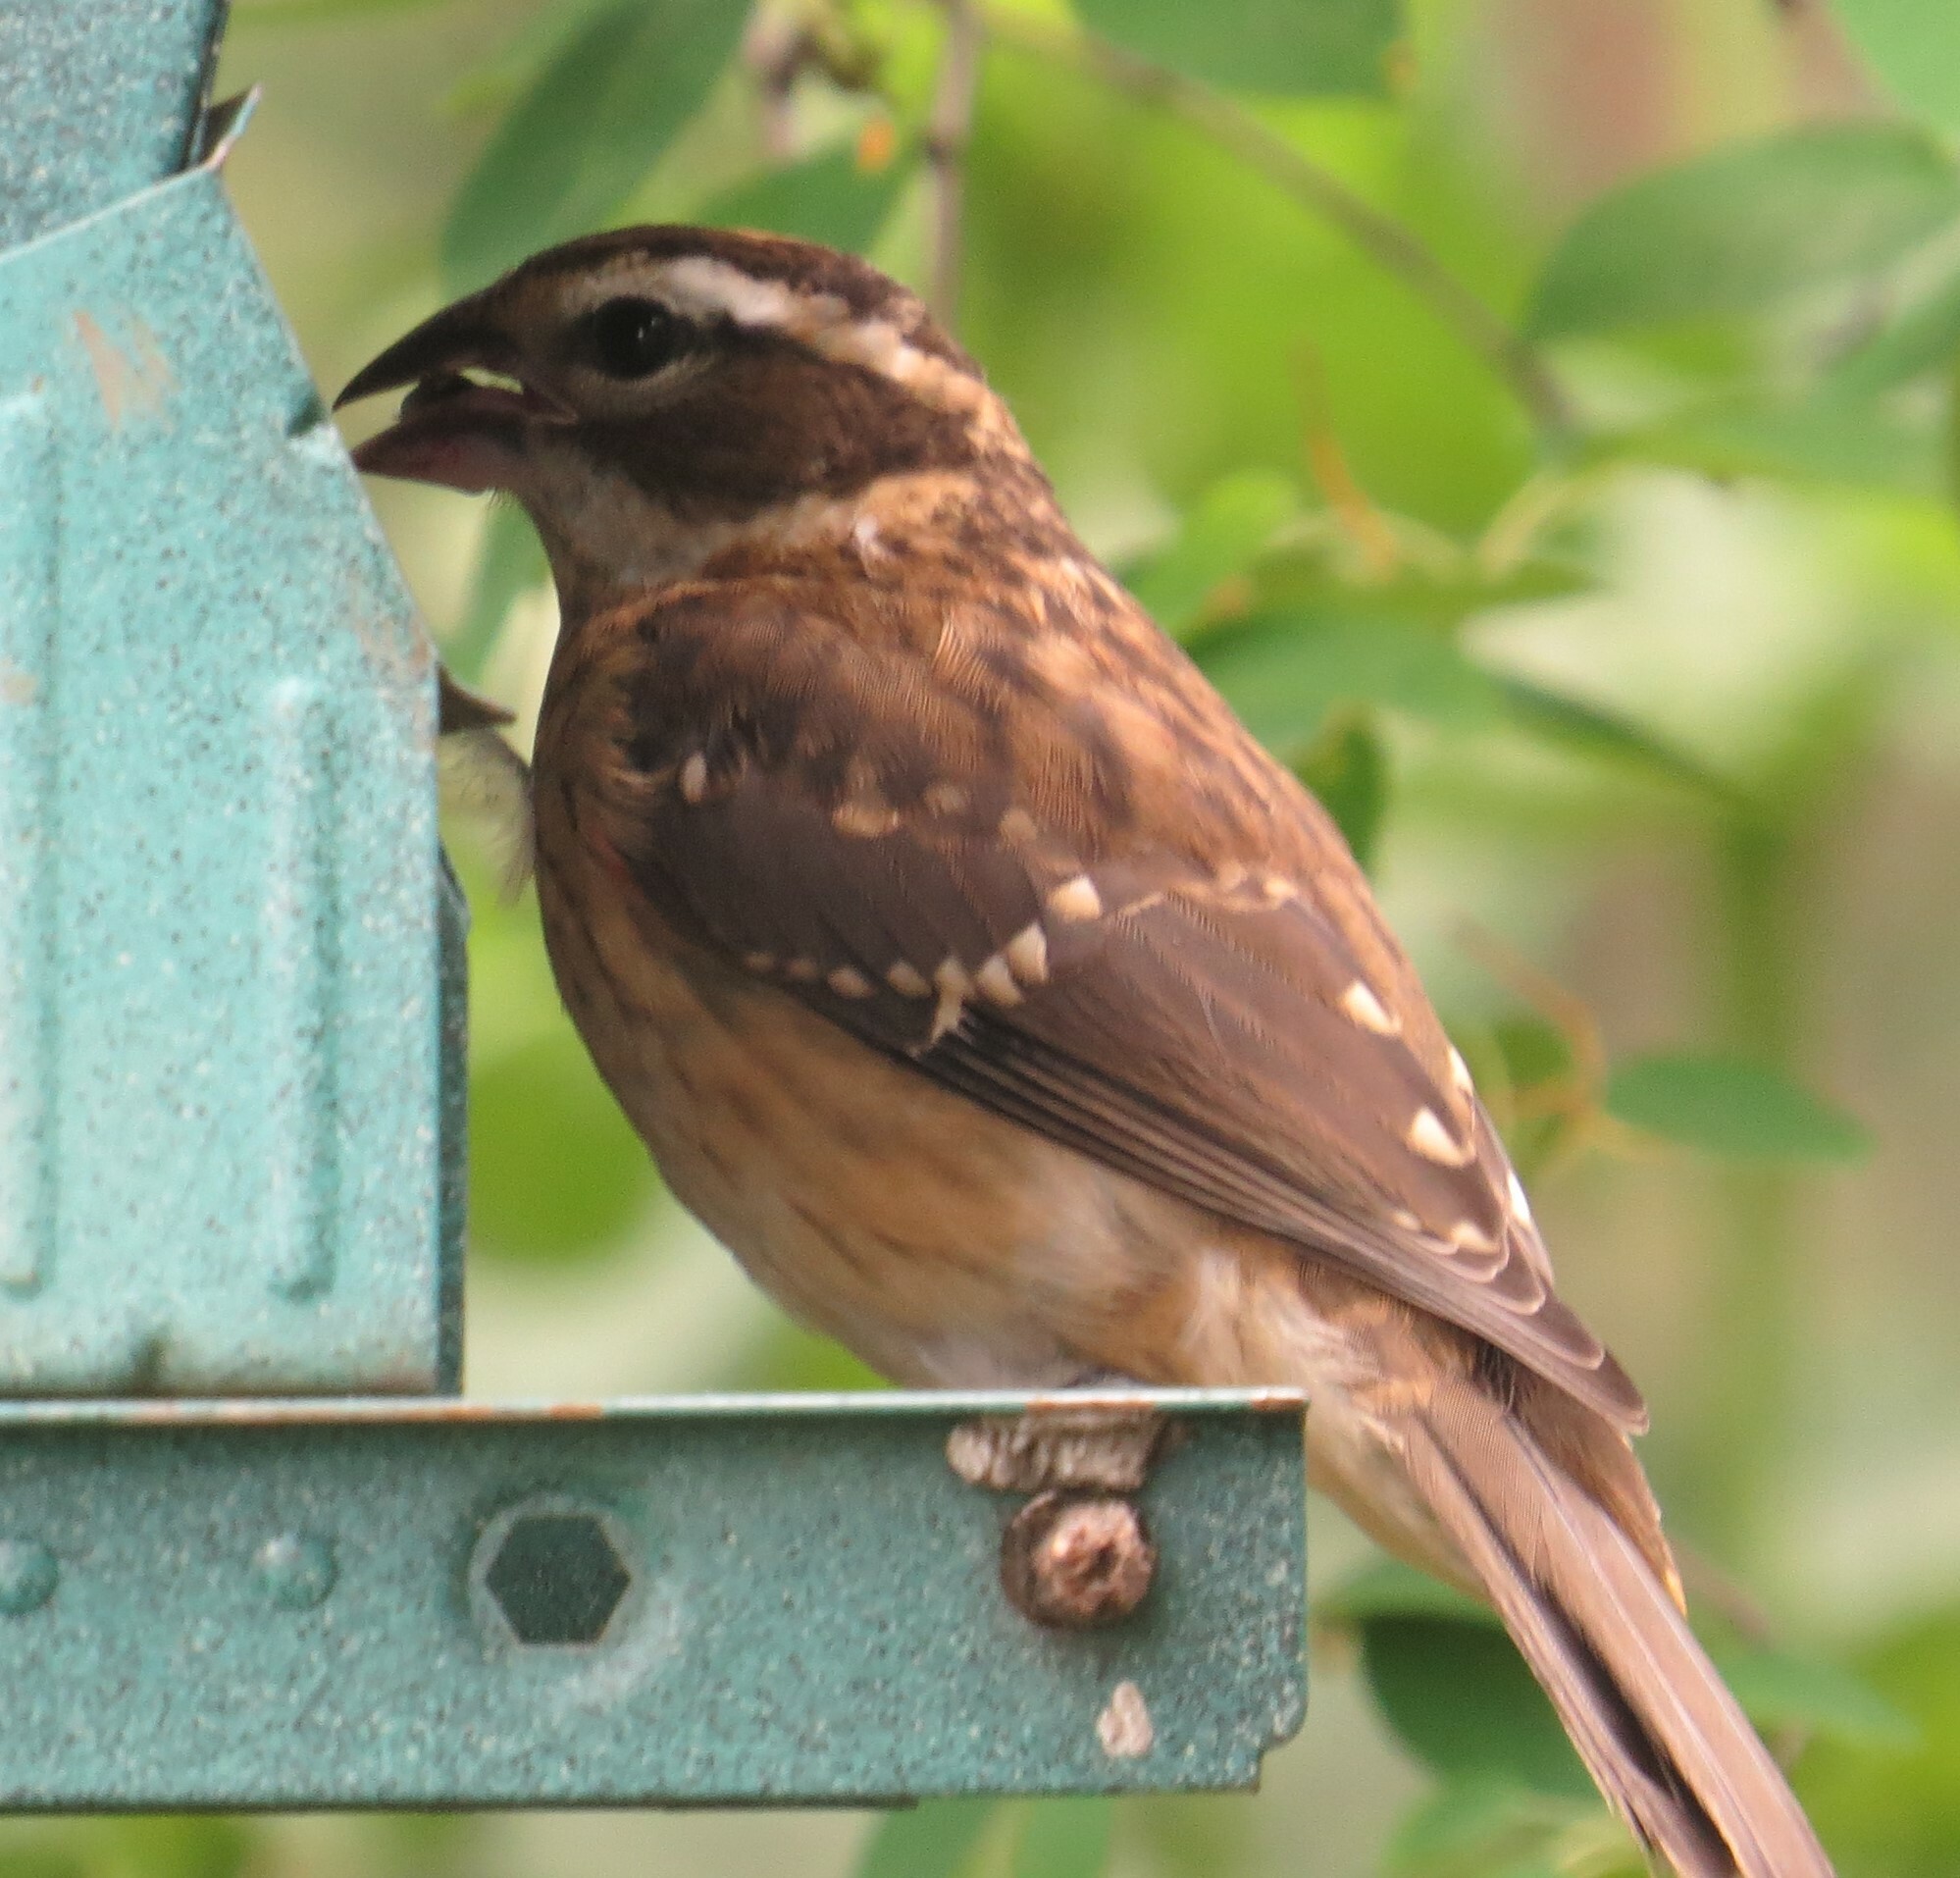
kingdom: Animalia
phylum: Chordata
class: Aves
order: Passeriformes
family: Cardinalidae
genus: Pheucticus
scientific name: Pheucticus ludovicianus
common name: Rose-breasted grosbeak
